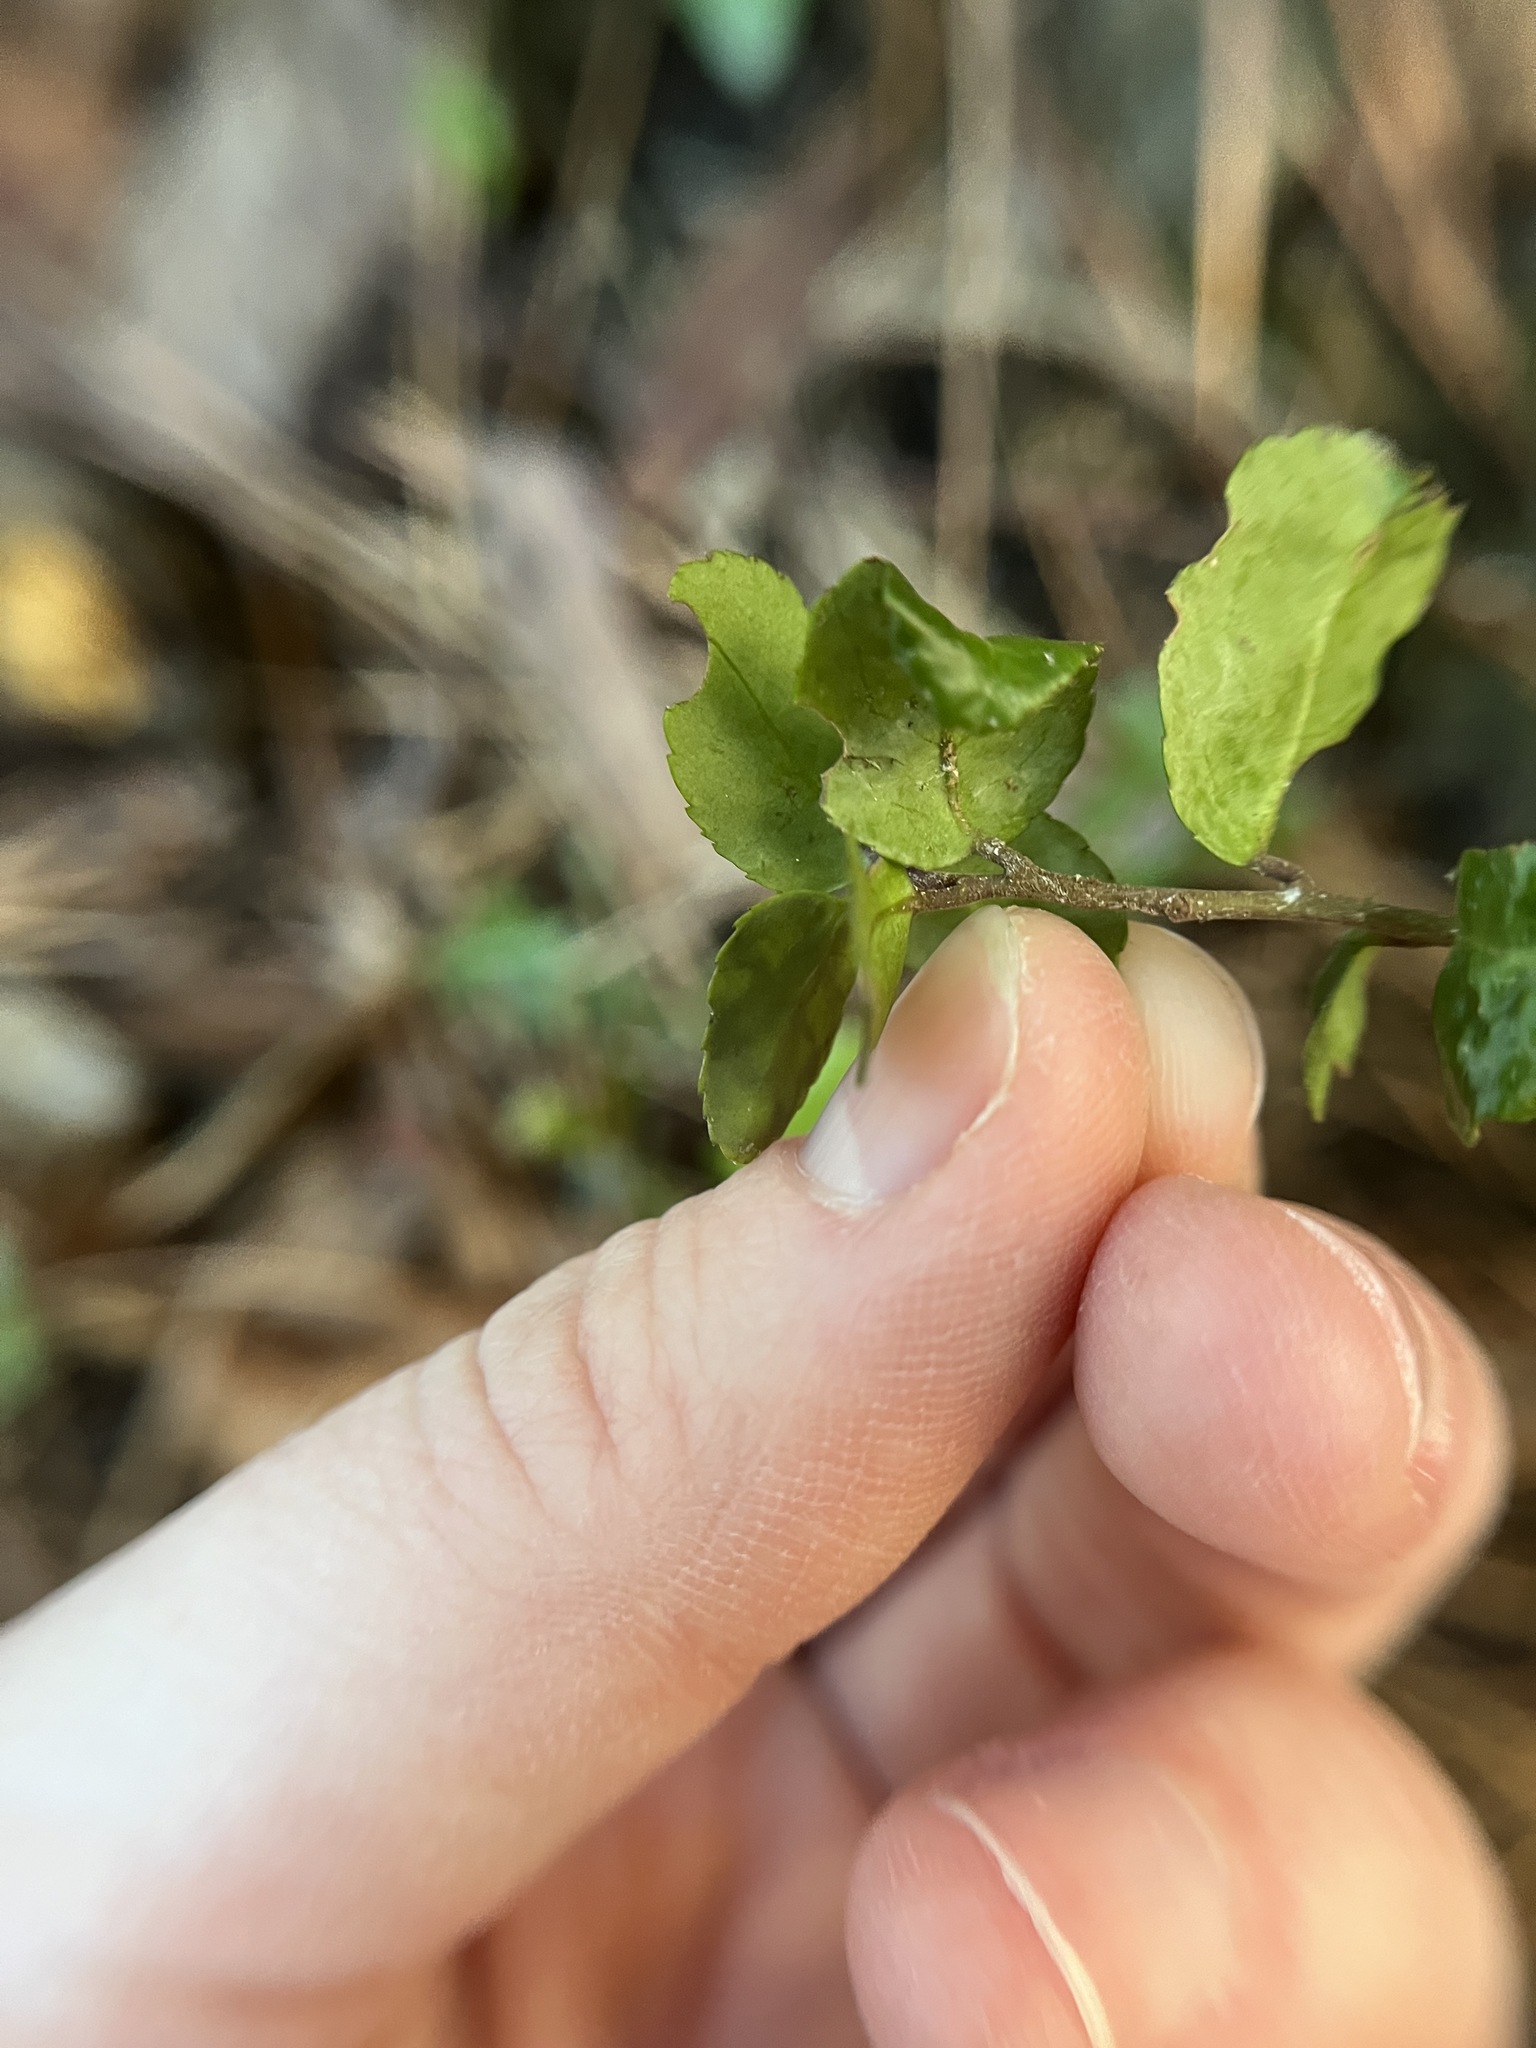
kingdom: Animalia
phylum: Arthropoda
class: Insecta
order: Diptera
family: Agromyzidae
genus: Phytomyza
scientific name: Phytomyza vomitoriae
